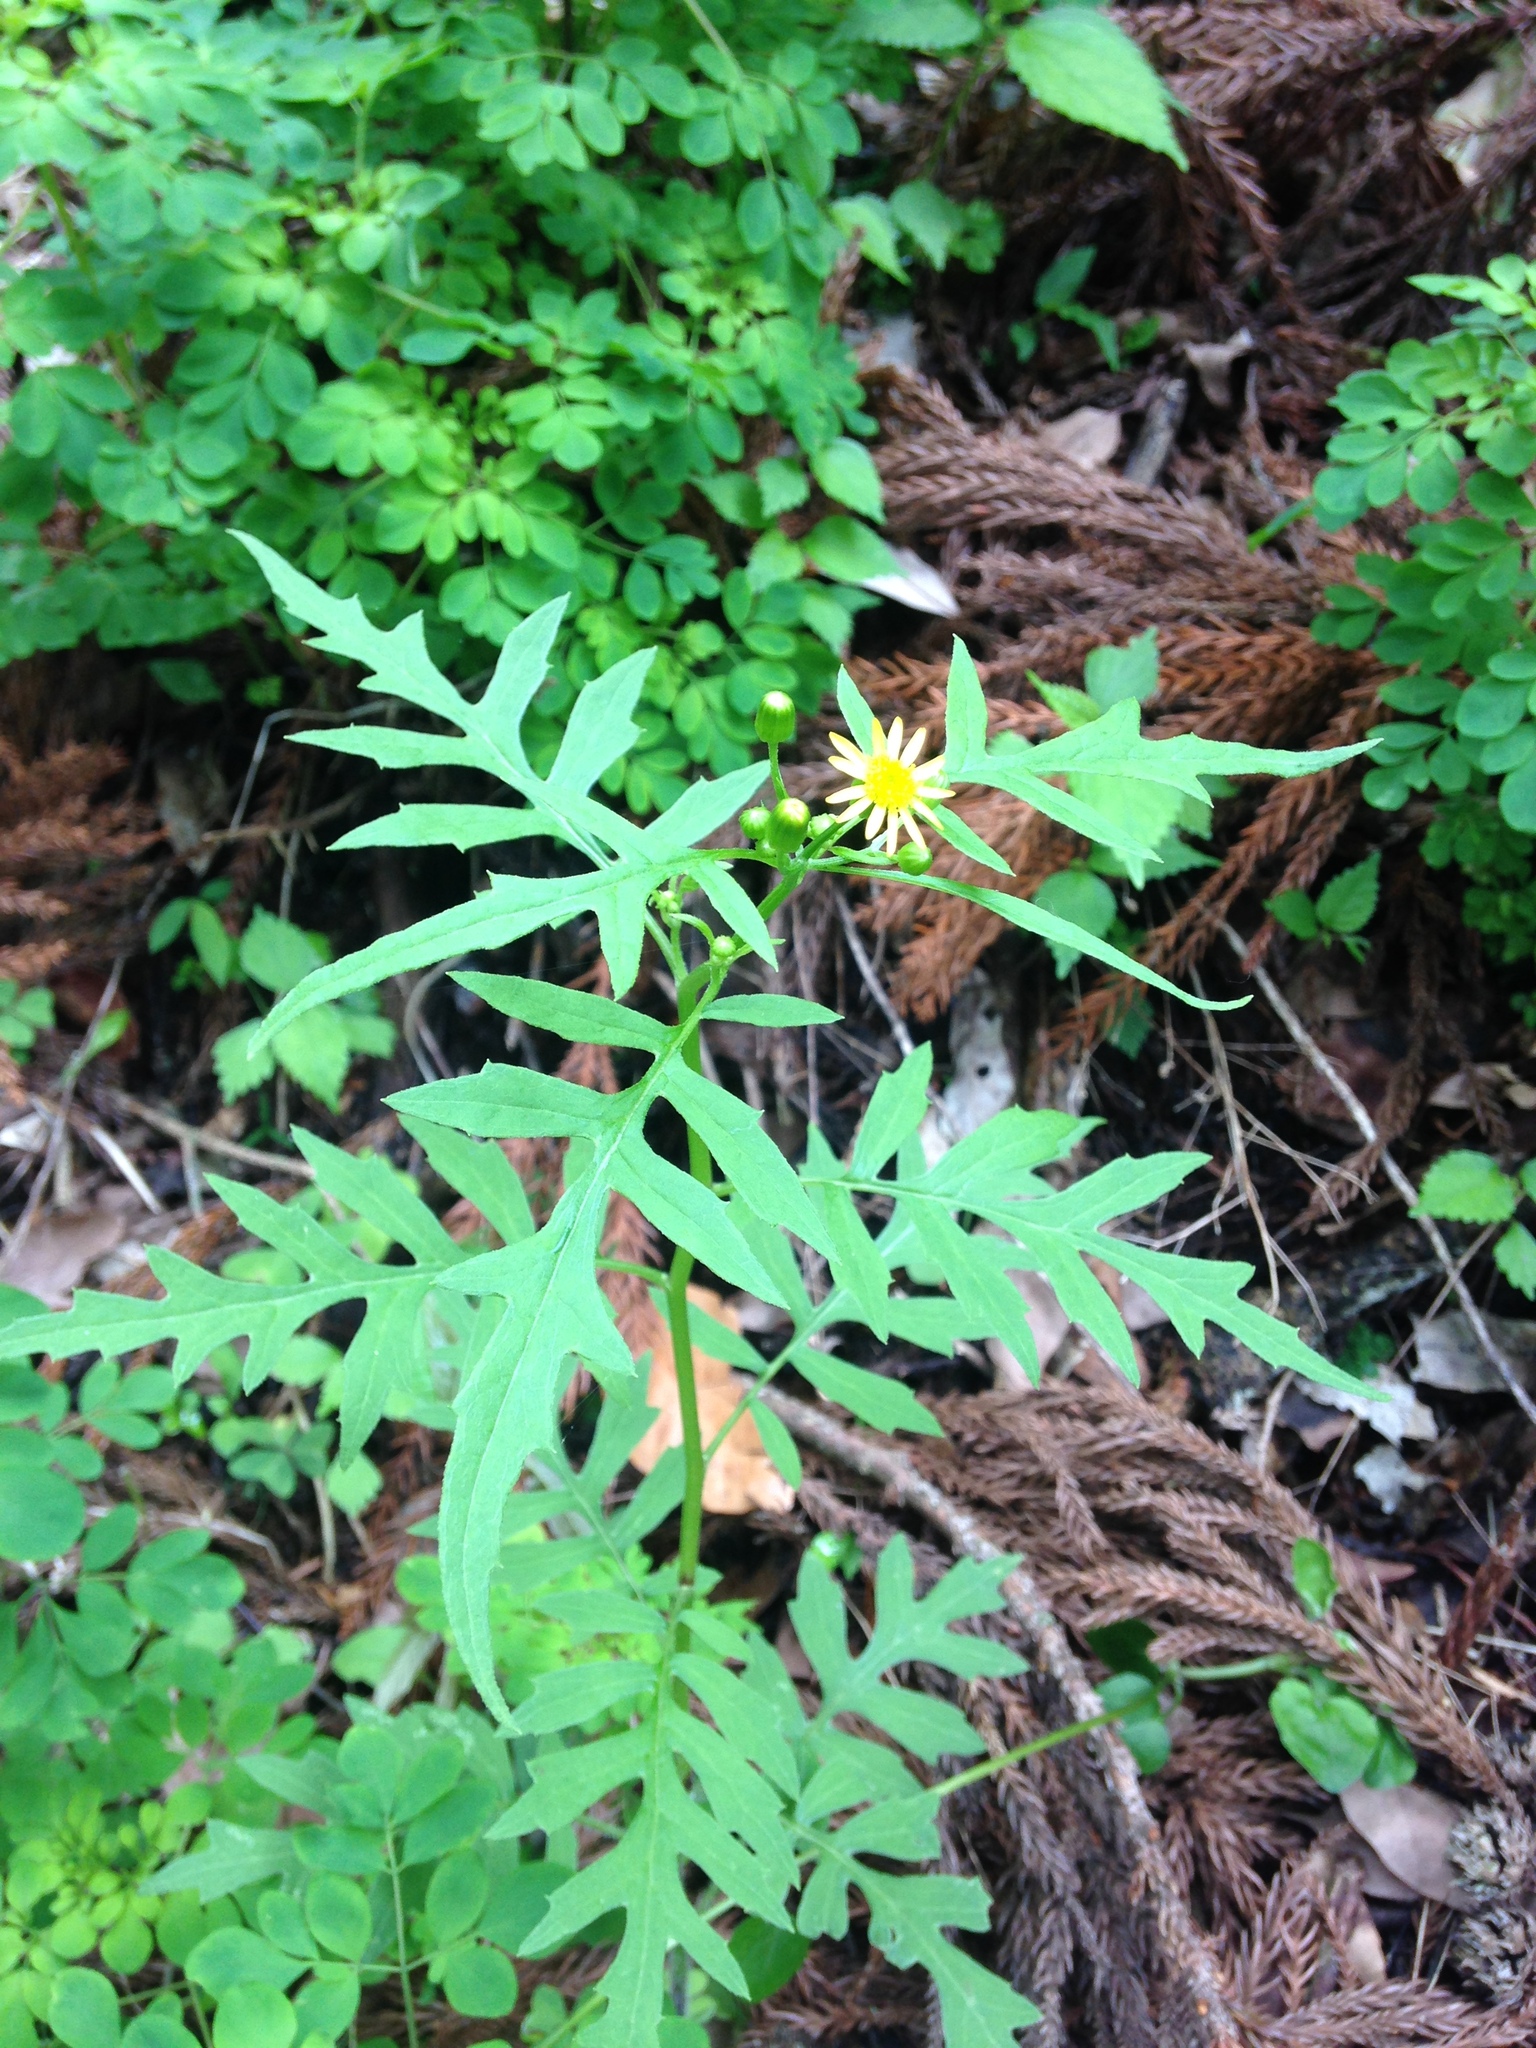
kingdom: Plantae
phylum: Tracheophyta
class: Magnoliopsida
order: Asterales
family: Asteraceae
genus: Nemosenecio
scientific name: Nemosenecio nikoensis
